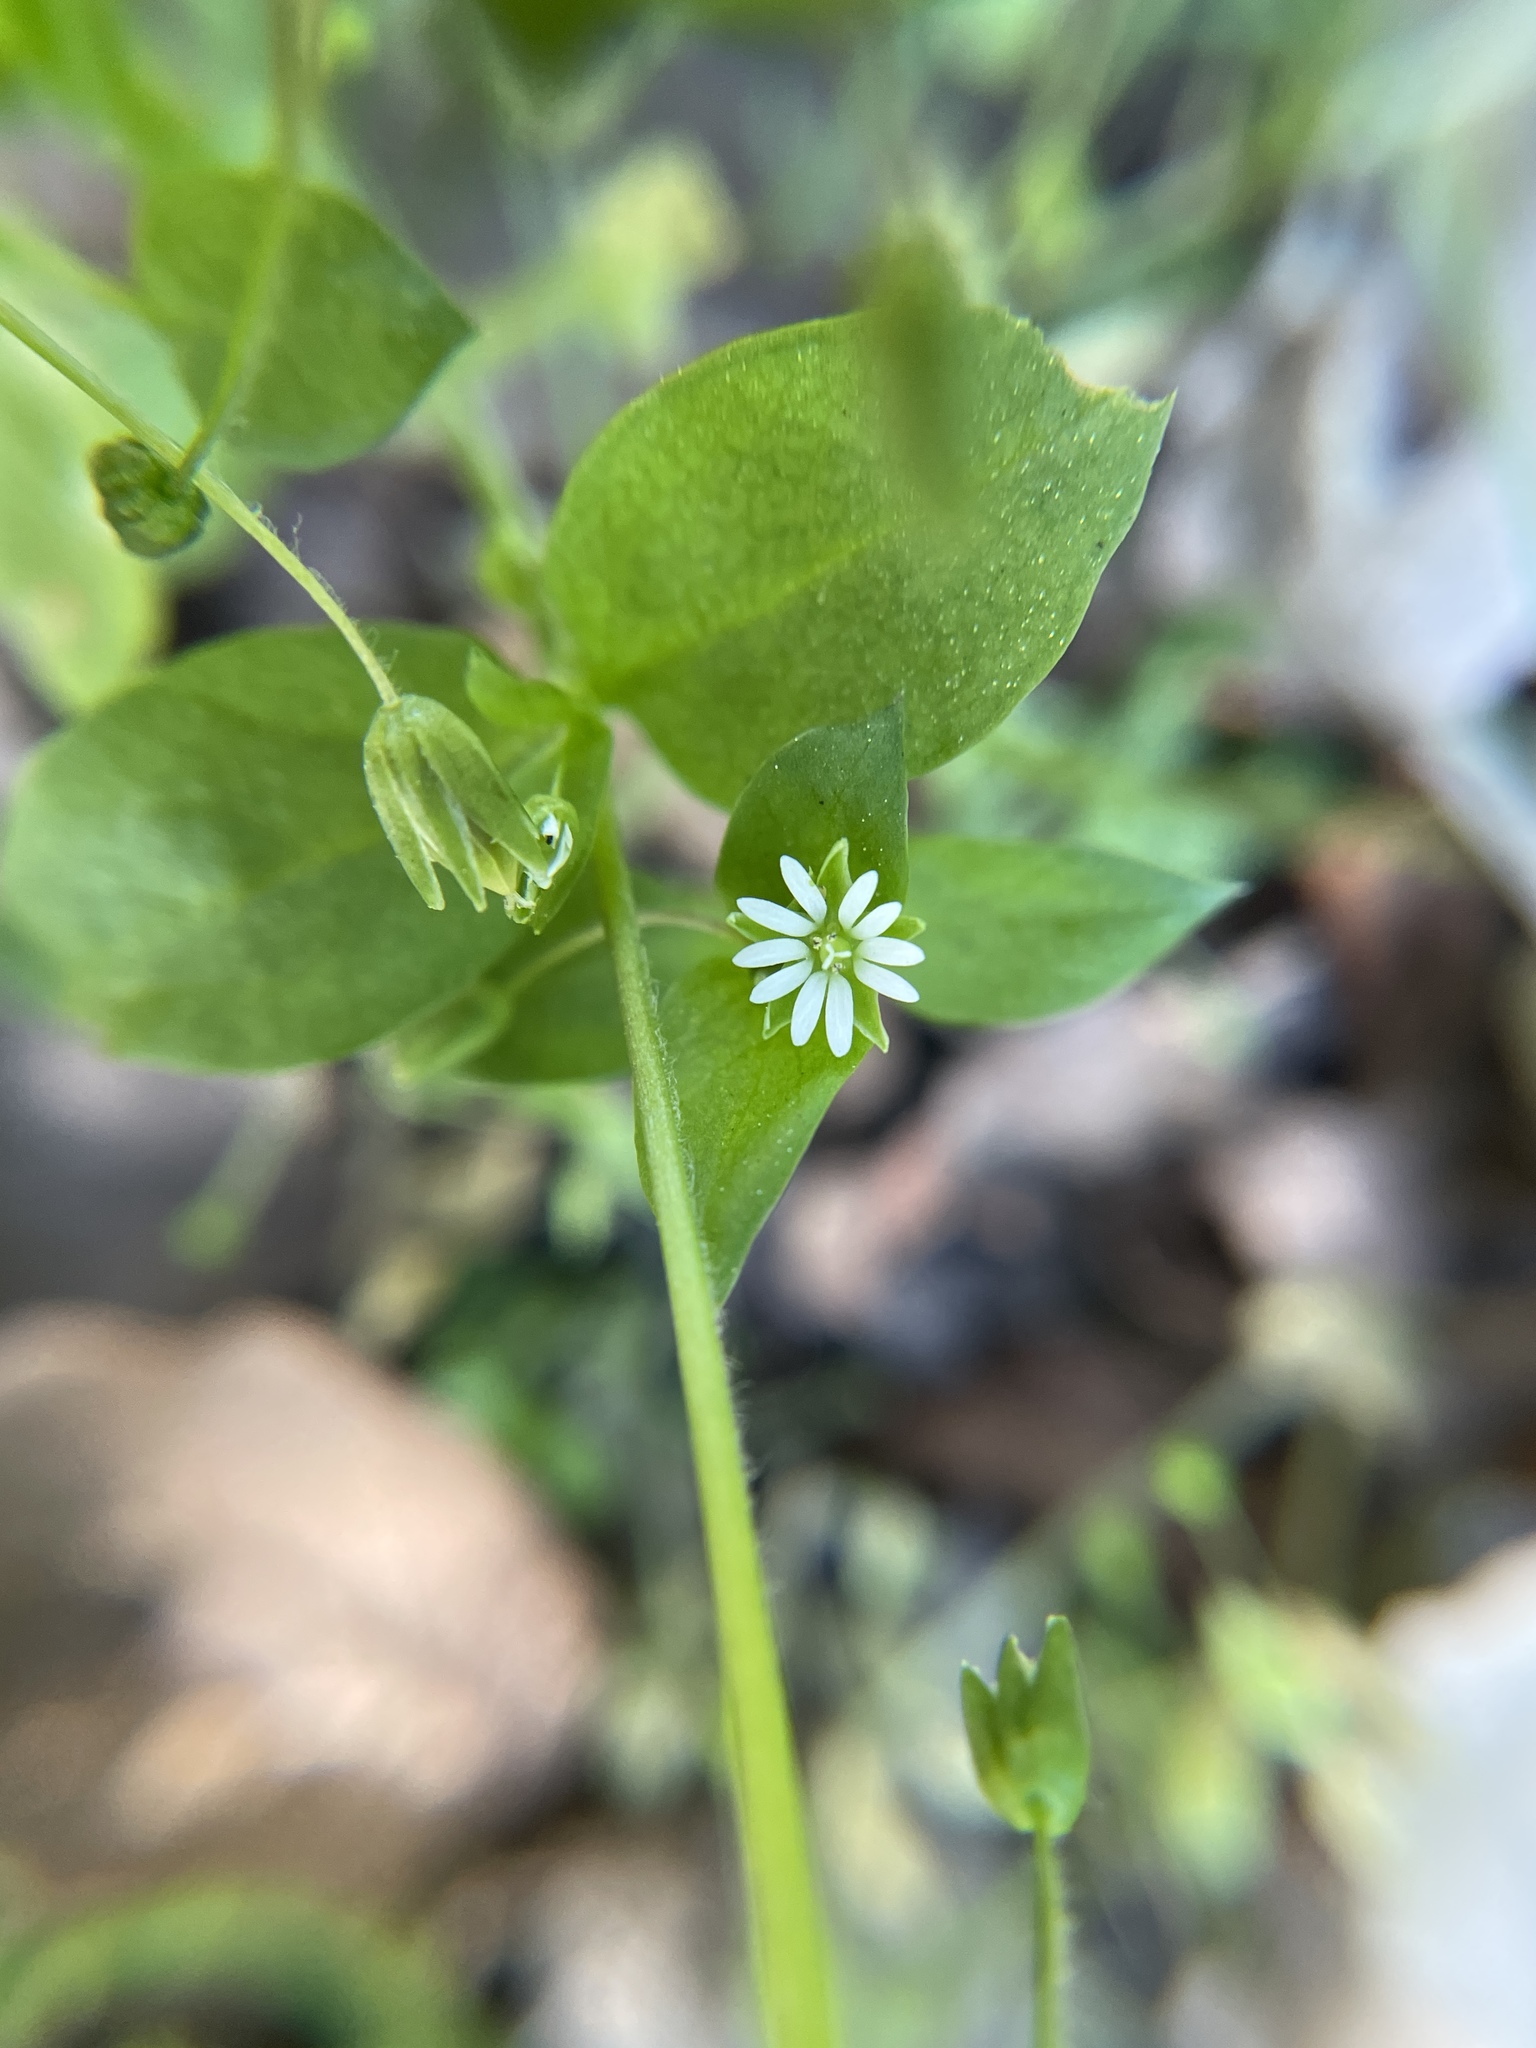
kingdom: Plantae
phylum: Tracheophyta
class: Magnoliopsida
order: Caryophyllales
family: Caryophyllaceae
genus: Stellaria
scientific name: Stellaria media
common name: Common chickweed
